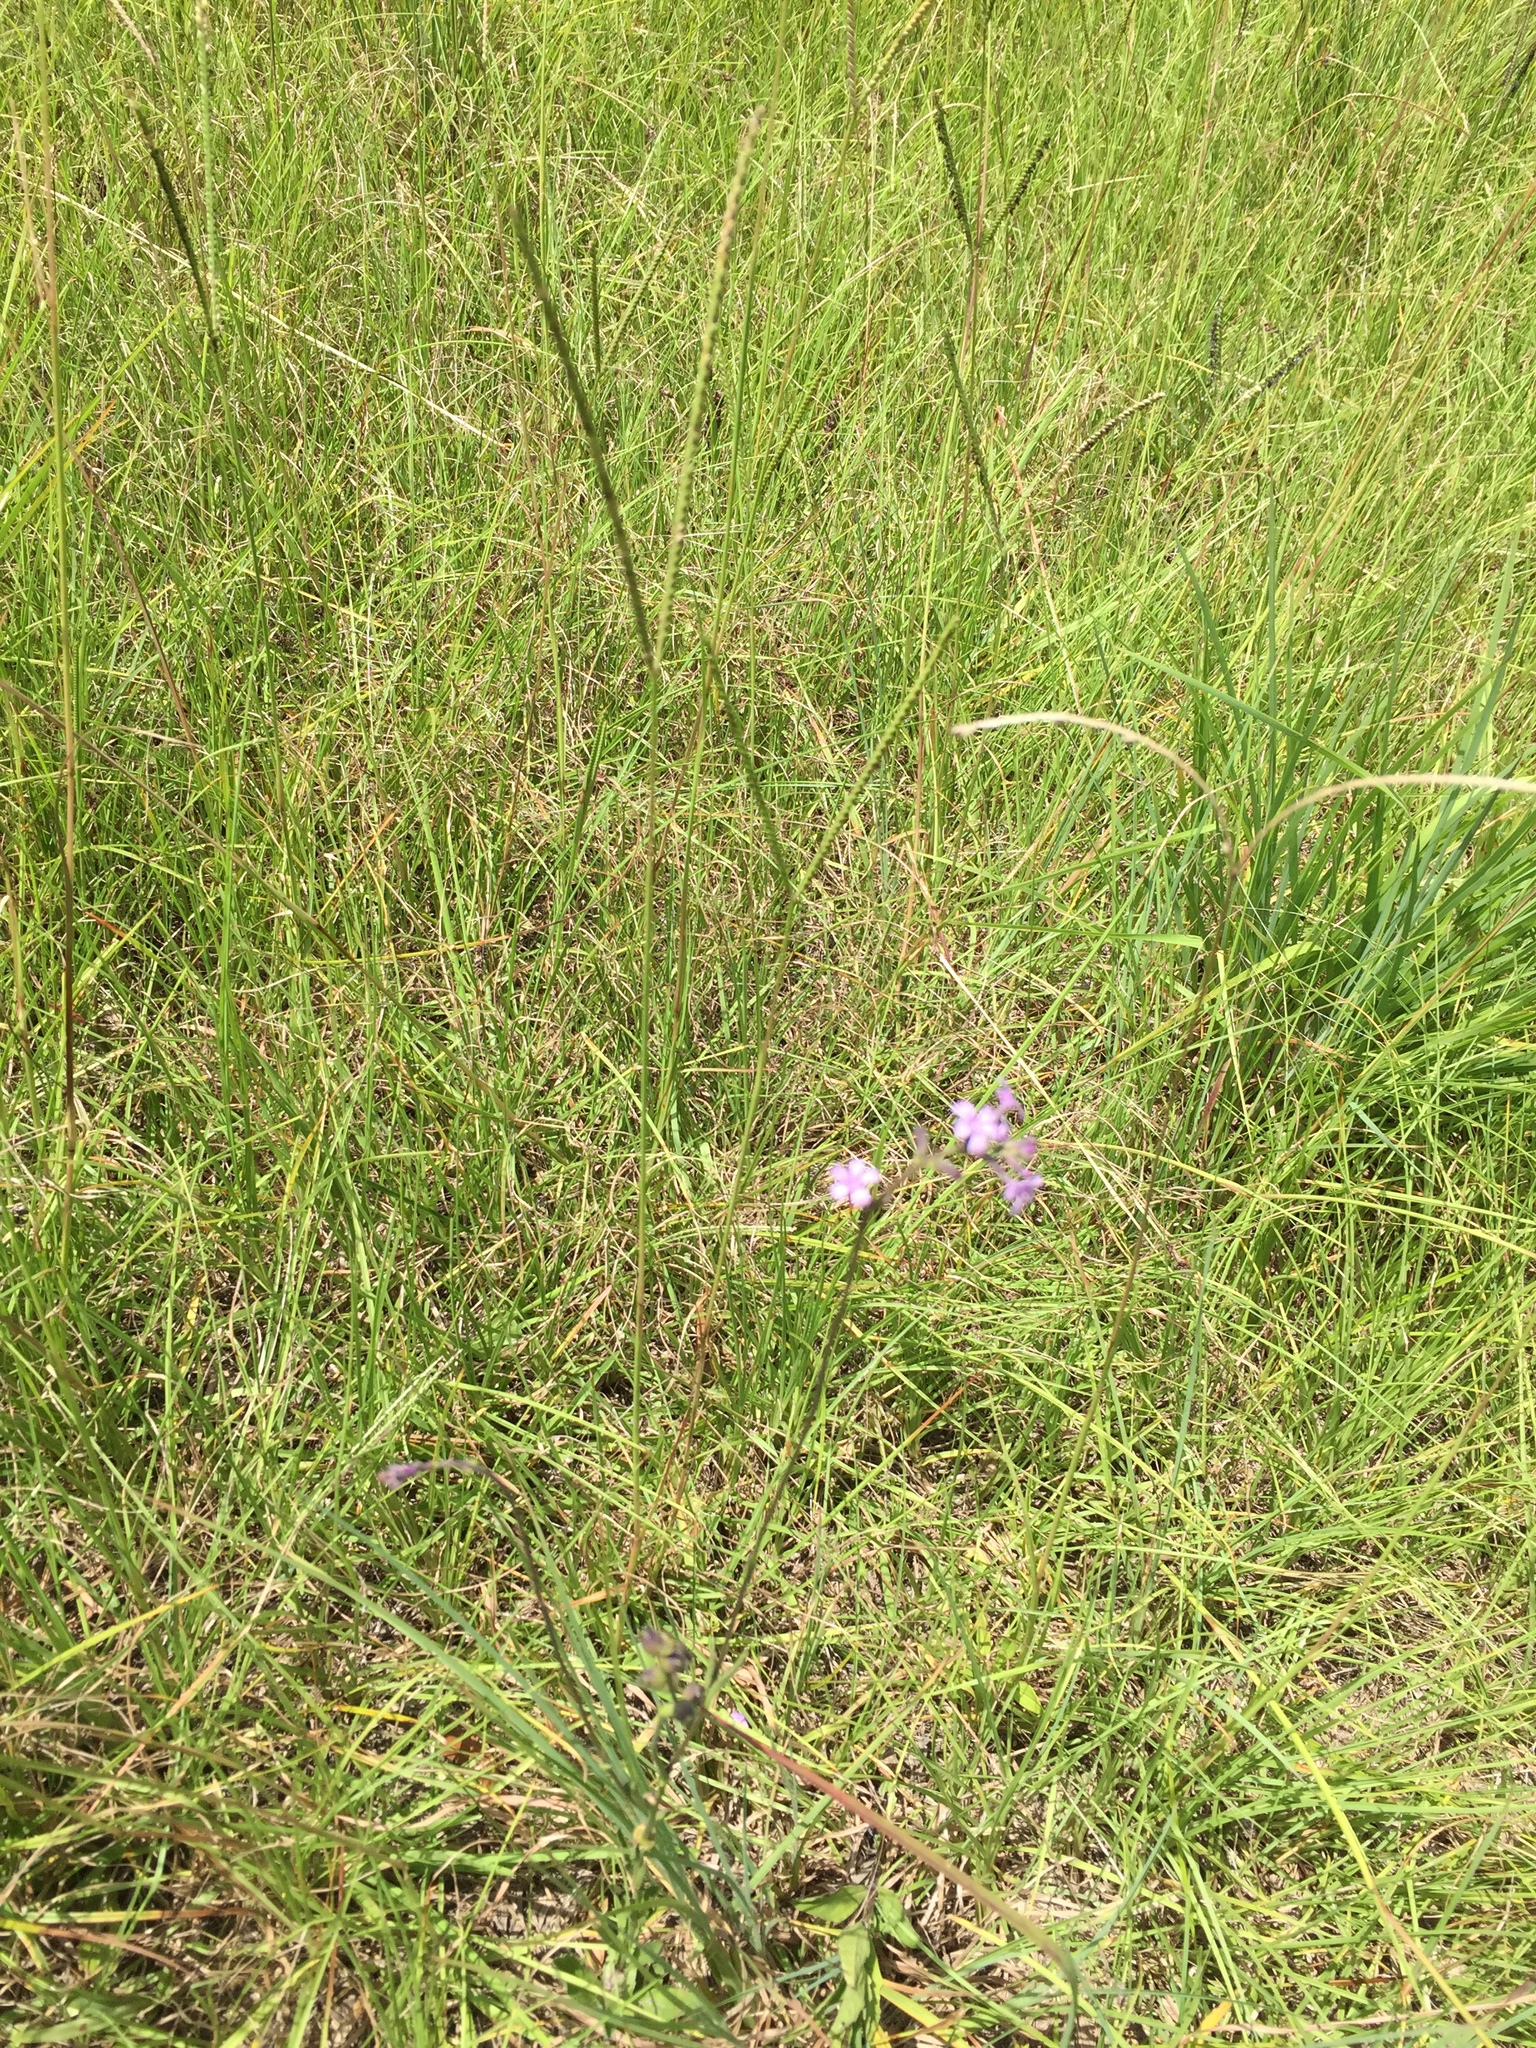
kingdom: Plantae
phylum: Tracheophyta
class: Magnoliopsida
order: Lamiales
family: Orobanchaceae
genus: Buchnera
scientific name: Buchnera floridana
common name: Florida bluehearts
